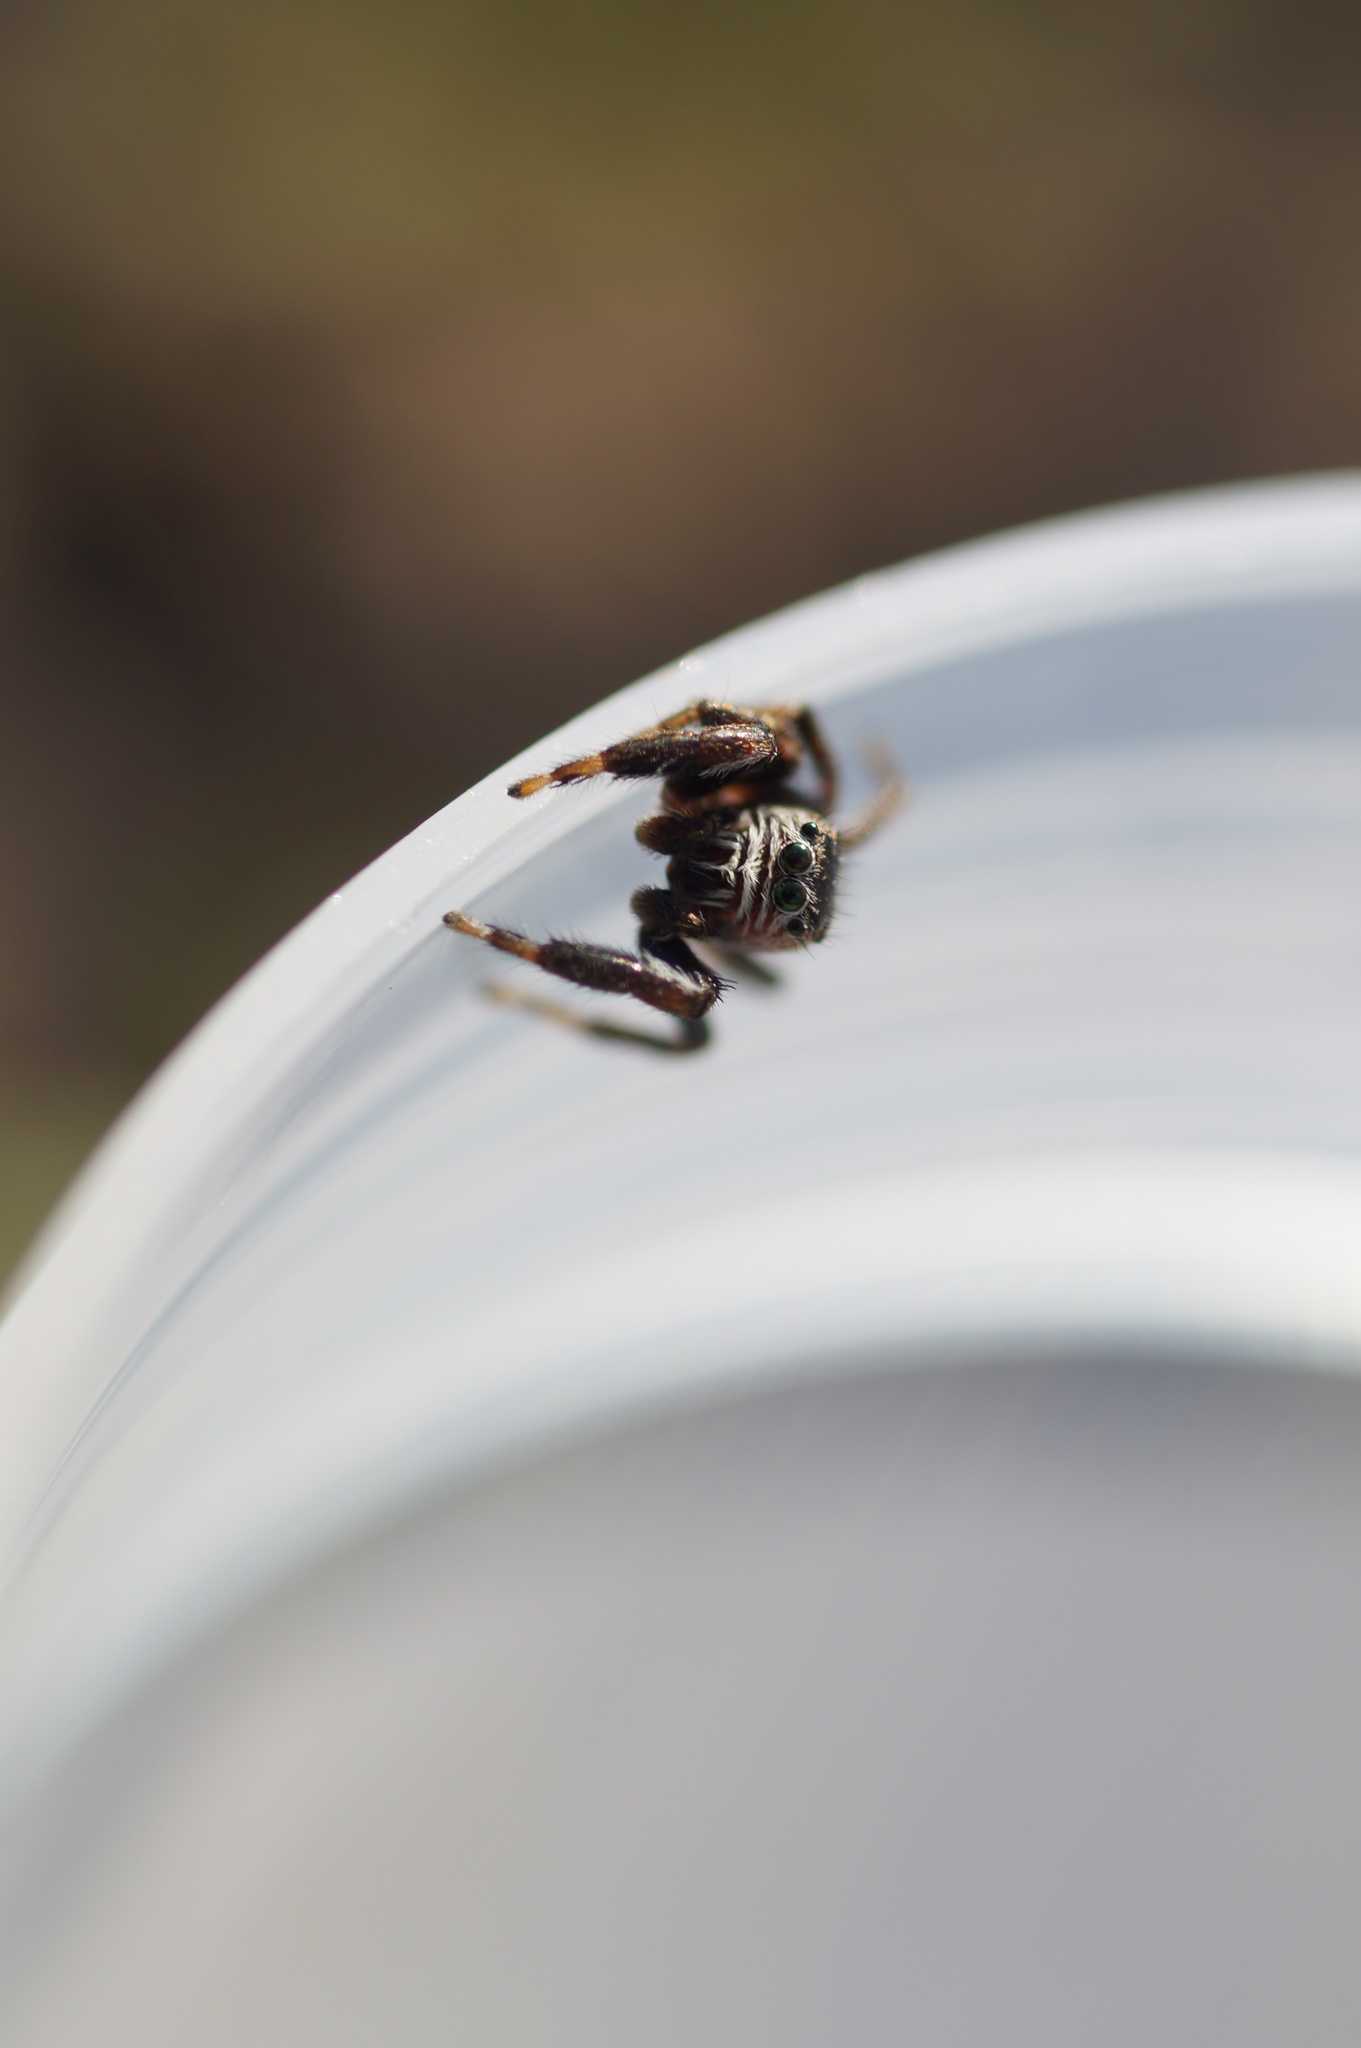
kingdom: Animalia
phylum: Arthropoda
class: Arachnida
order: Araneae
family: Salticidae
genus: Evarcha
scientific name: Evarcha arcuata
